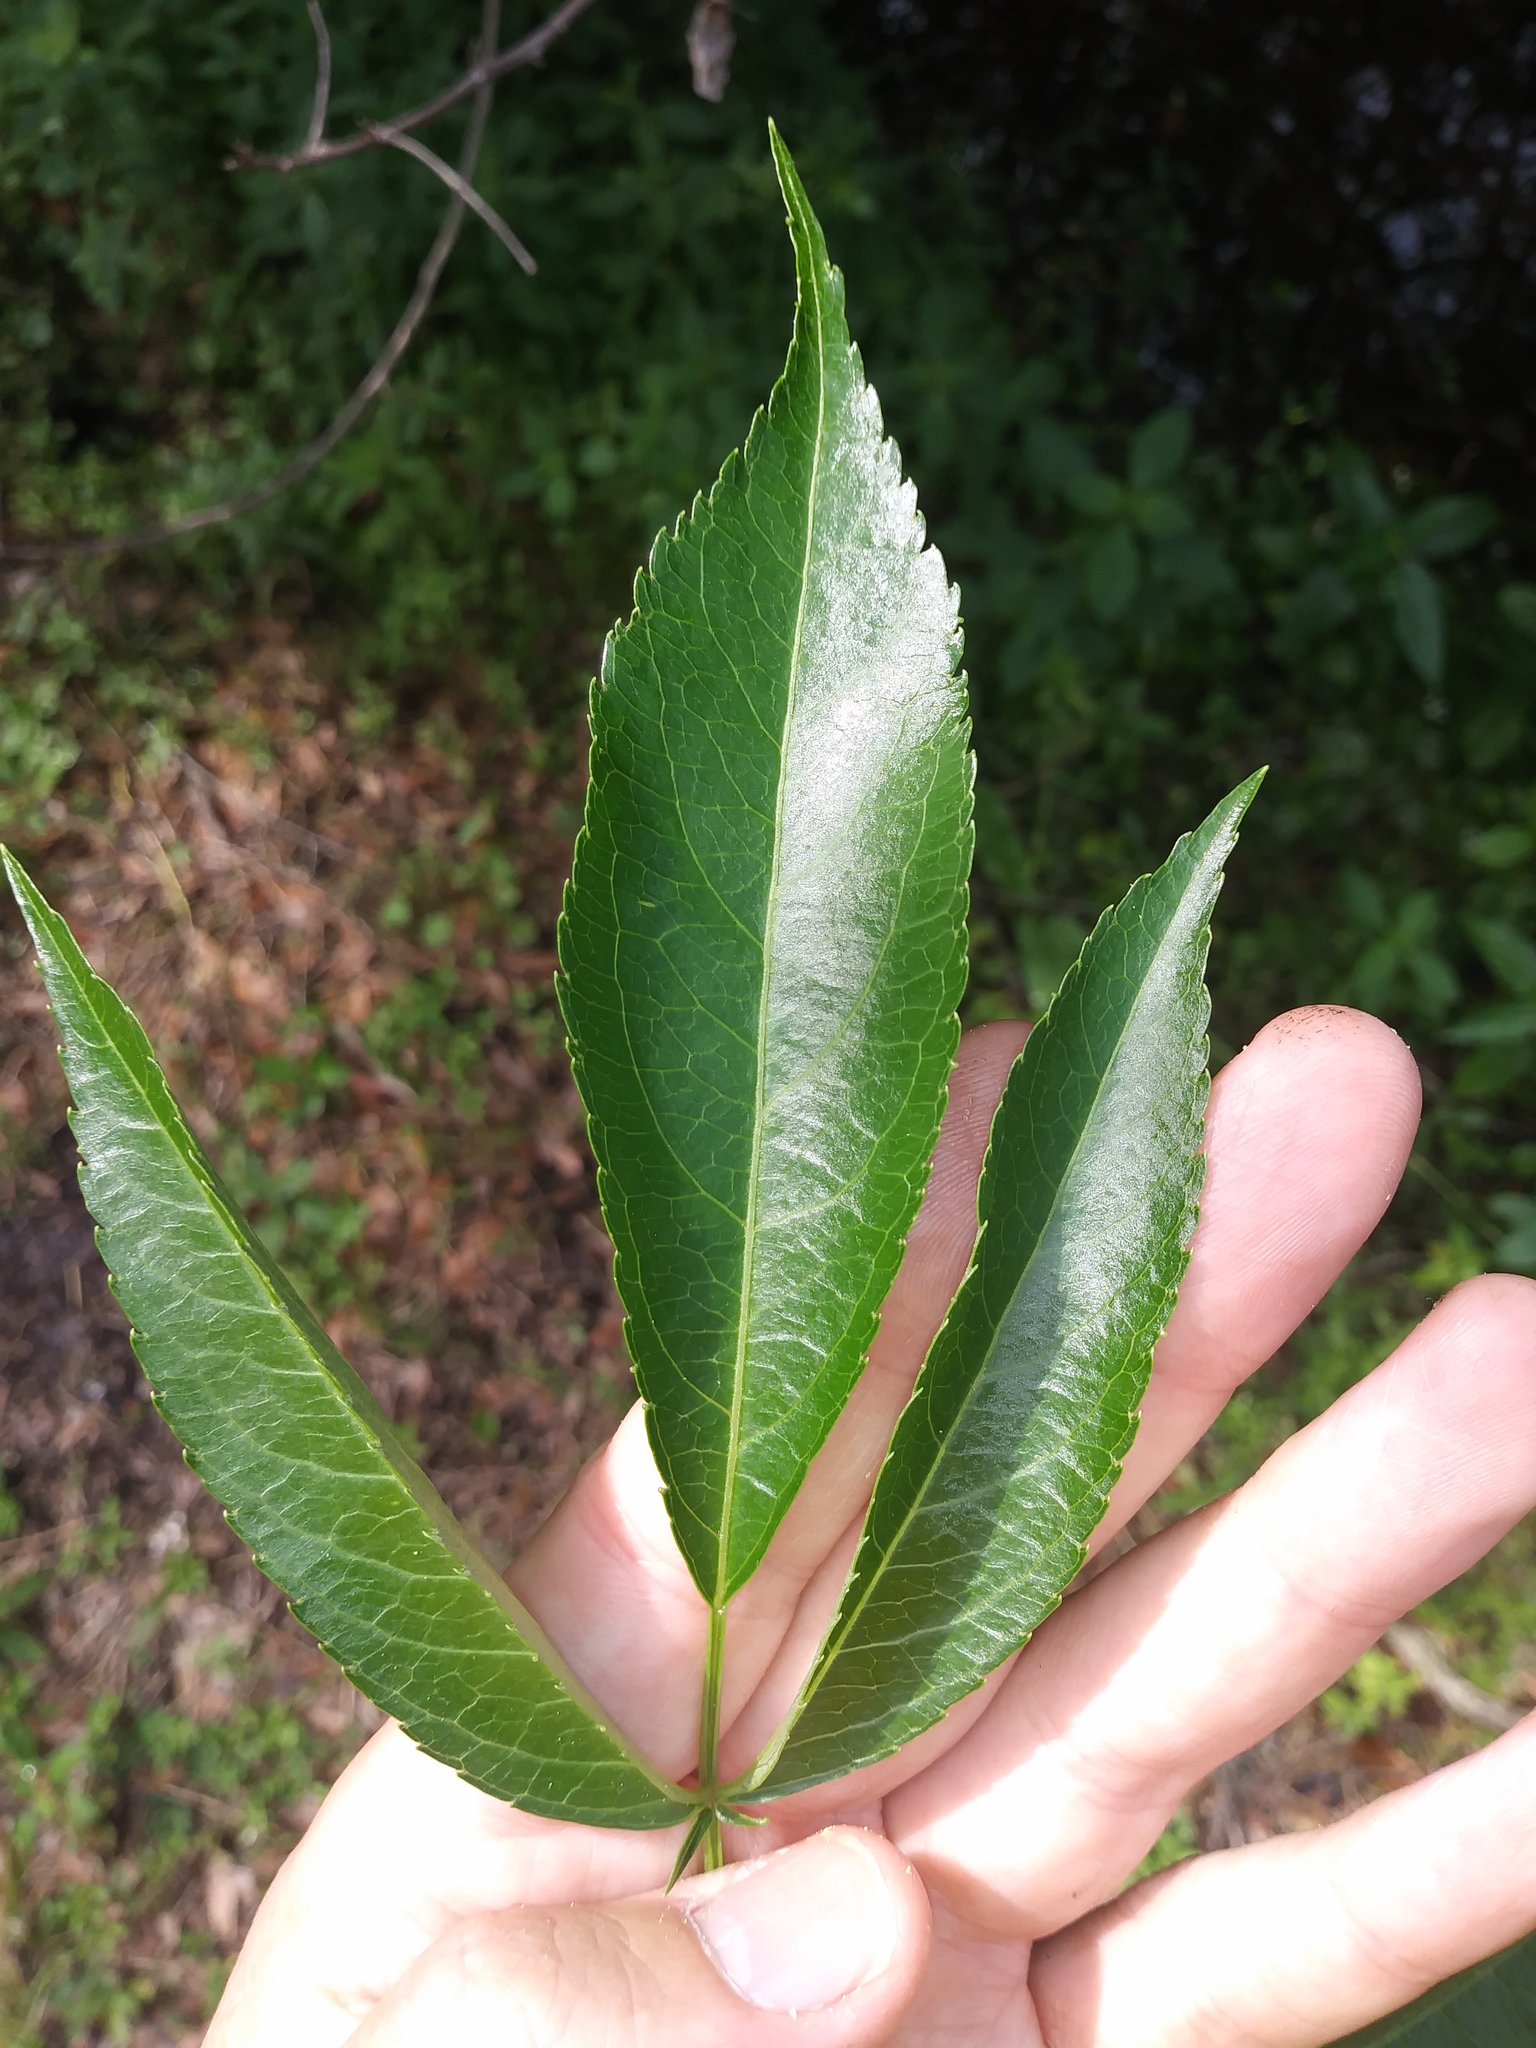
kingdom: Plantae
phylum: Tracheophyta
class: Magnoliopsida
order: Dipsacales
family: Viburnaceae
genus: Sambucus
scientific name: Sambucus canadensis
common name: American elder
